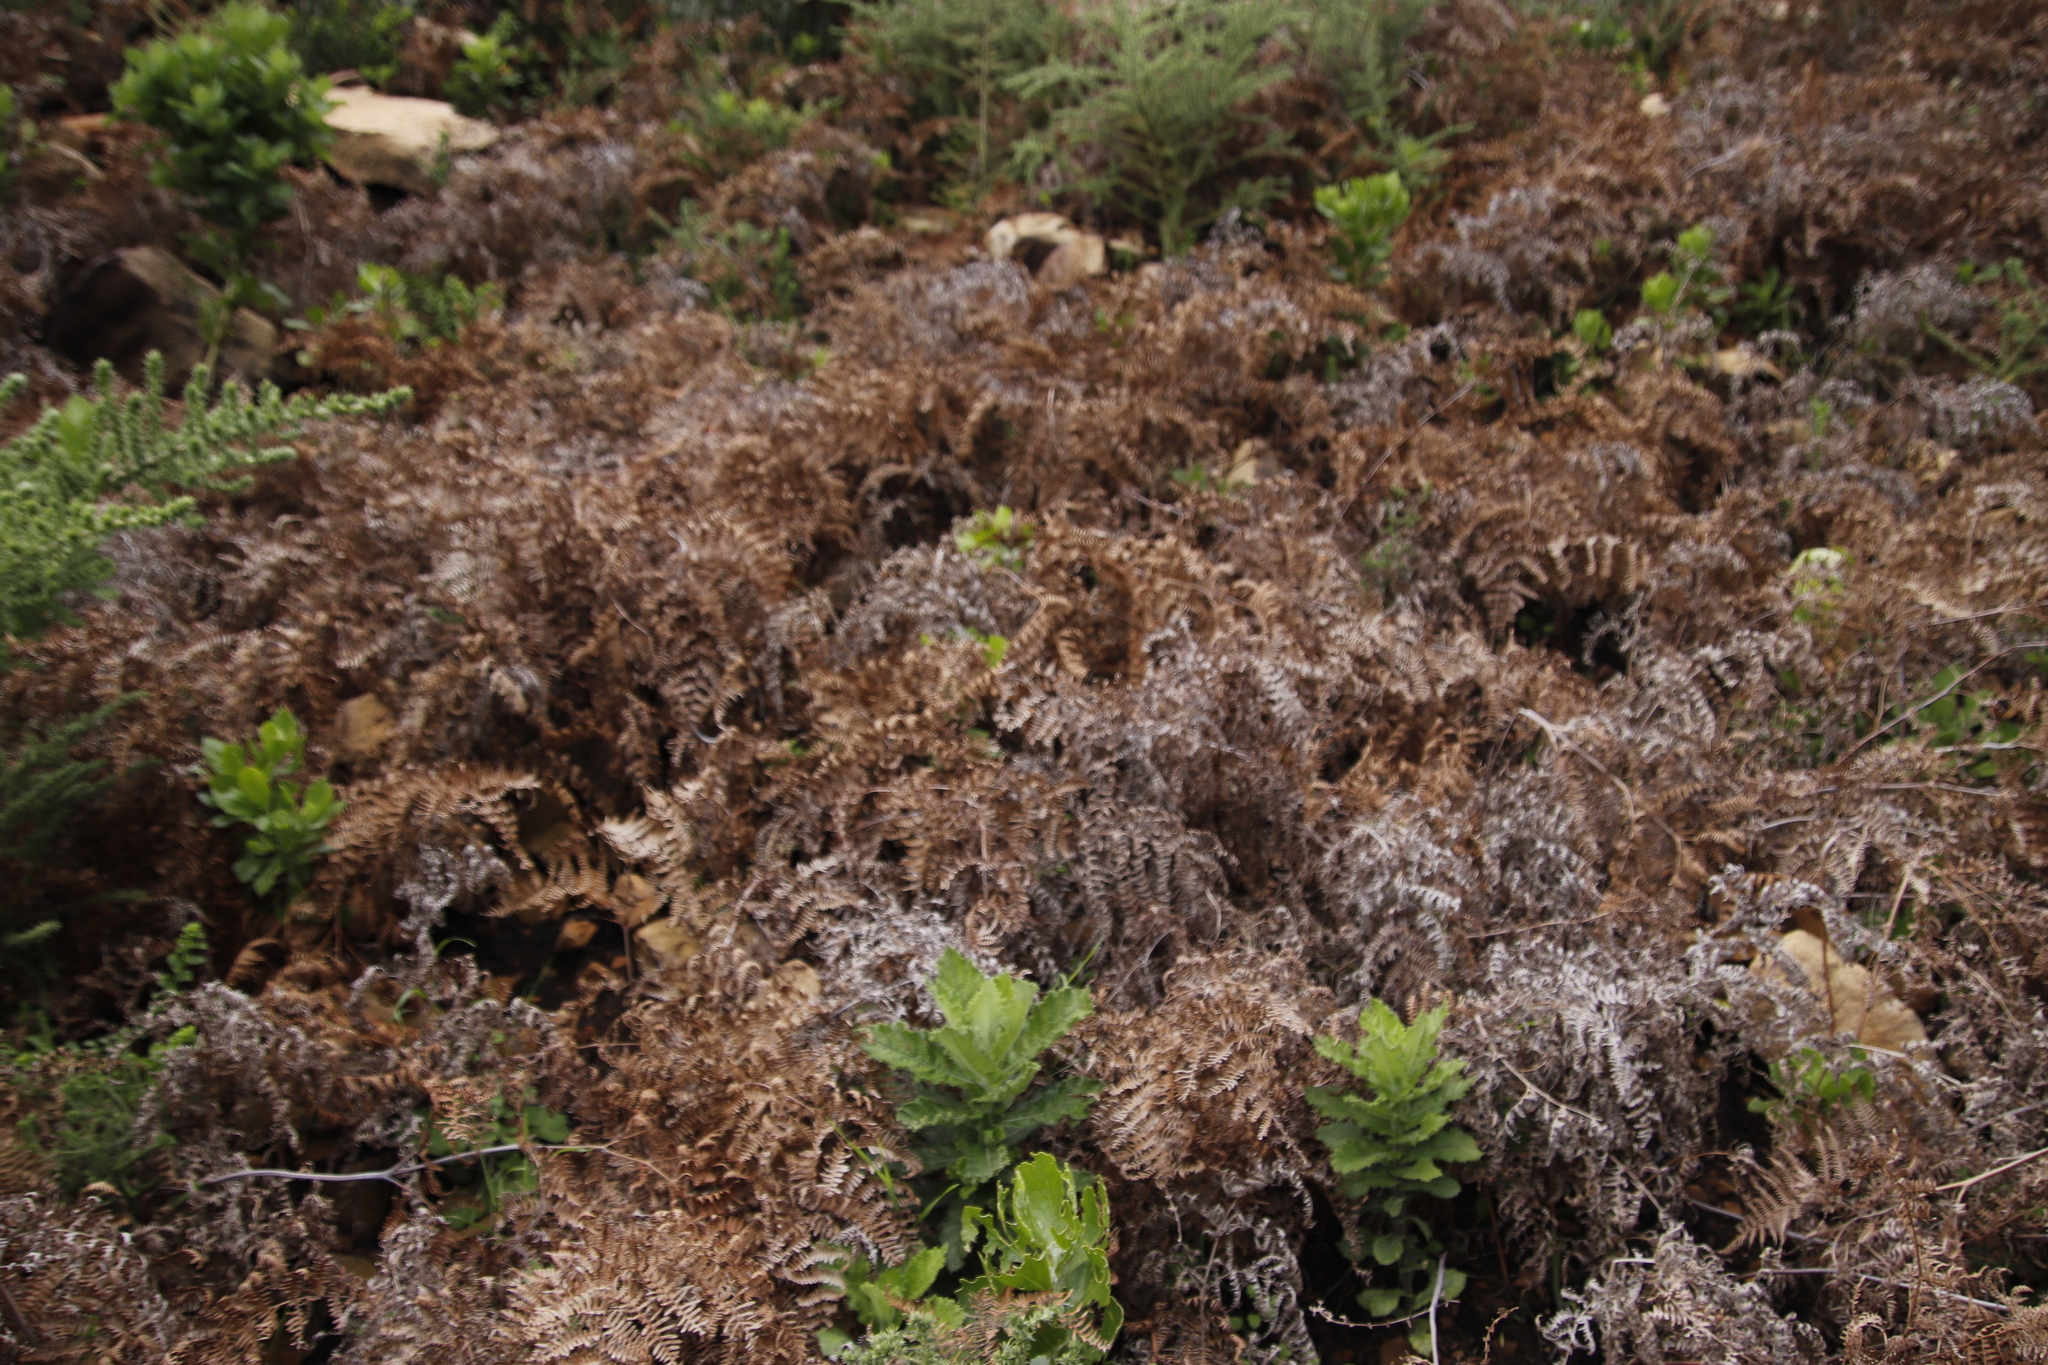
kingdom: Plantae
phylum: Tracheophyta
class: Polypodiopsida
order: Polypodiales
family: Dennstaedtiaceae
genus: Pteridium
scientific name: Pteridium aquilinum
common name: Bracken
